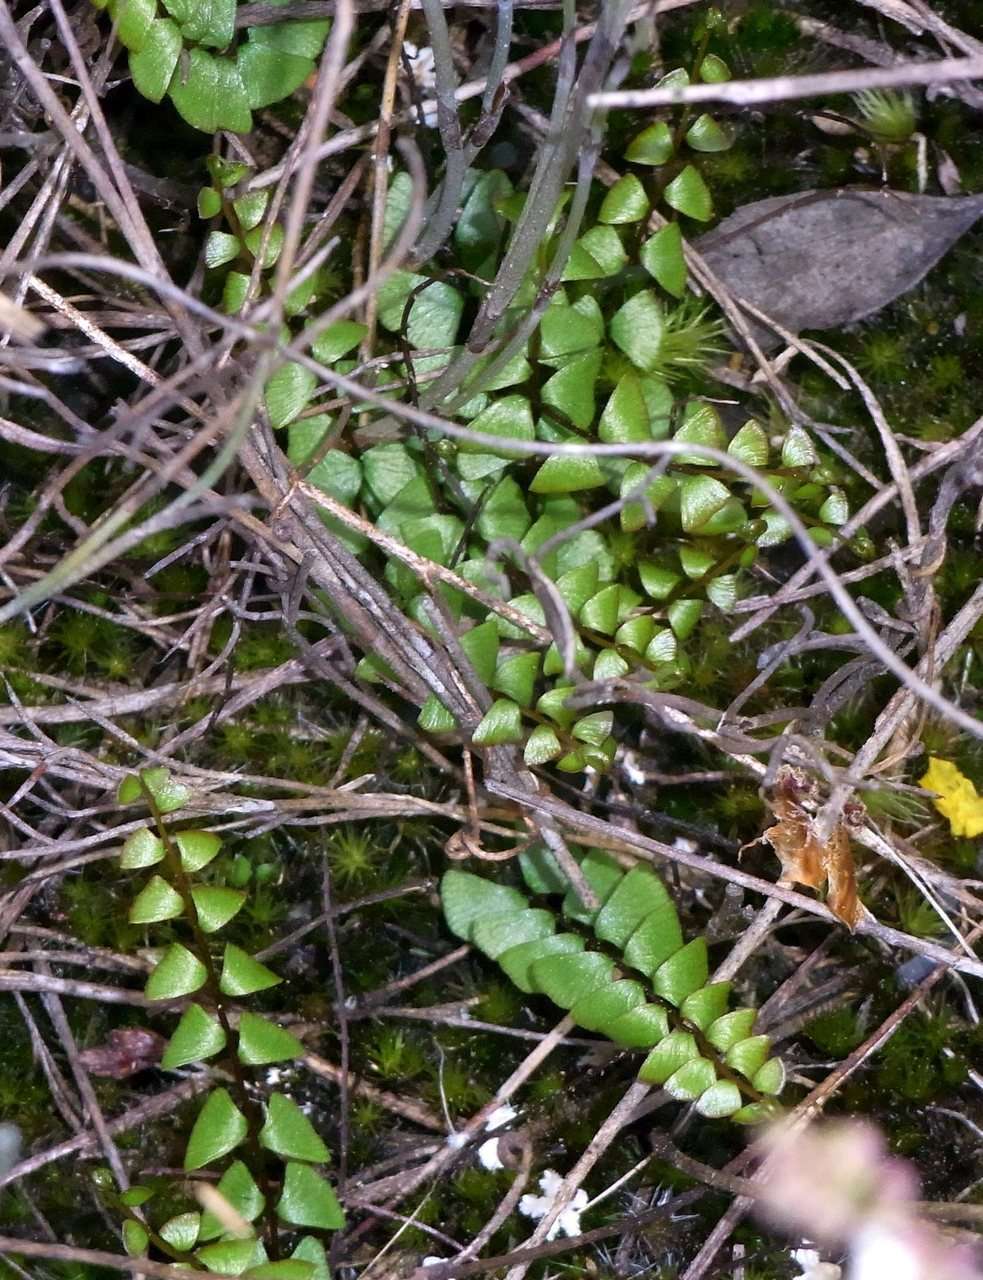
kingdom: Plantae
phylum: Tracheophyta
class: Polypodiopsida
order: Polypodiales
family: Lindsaeaceae
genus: Lindsaea
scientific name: Lindsaea linearis
